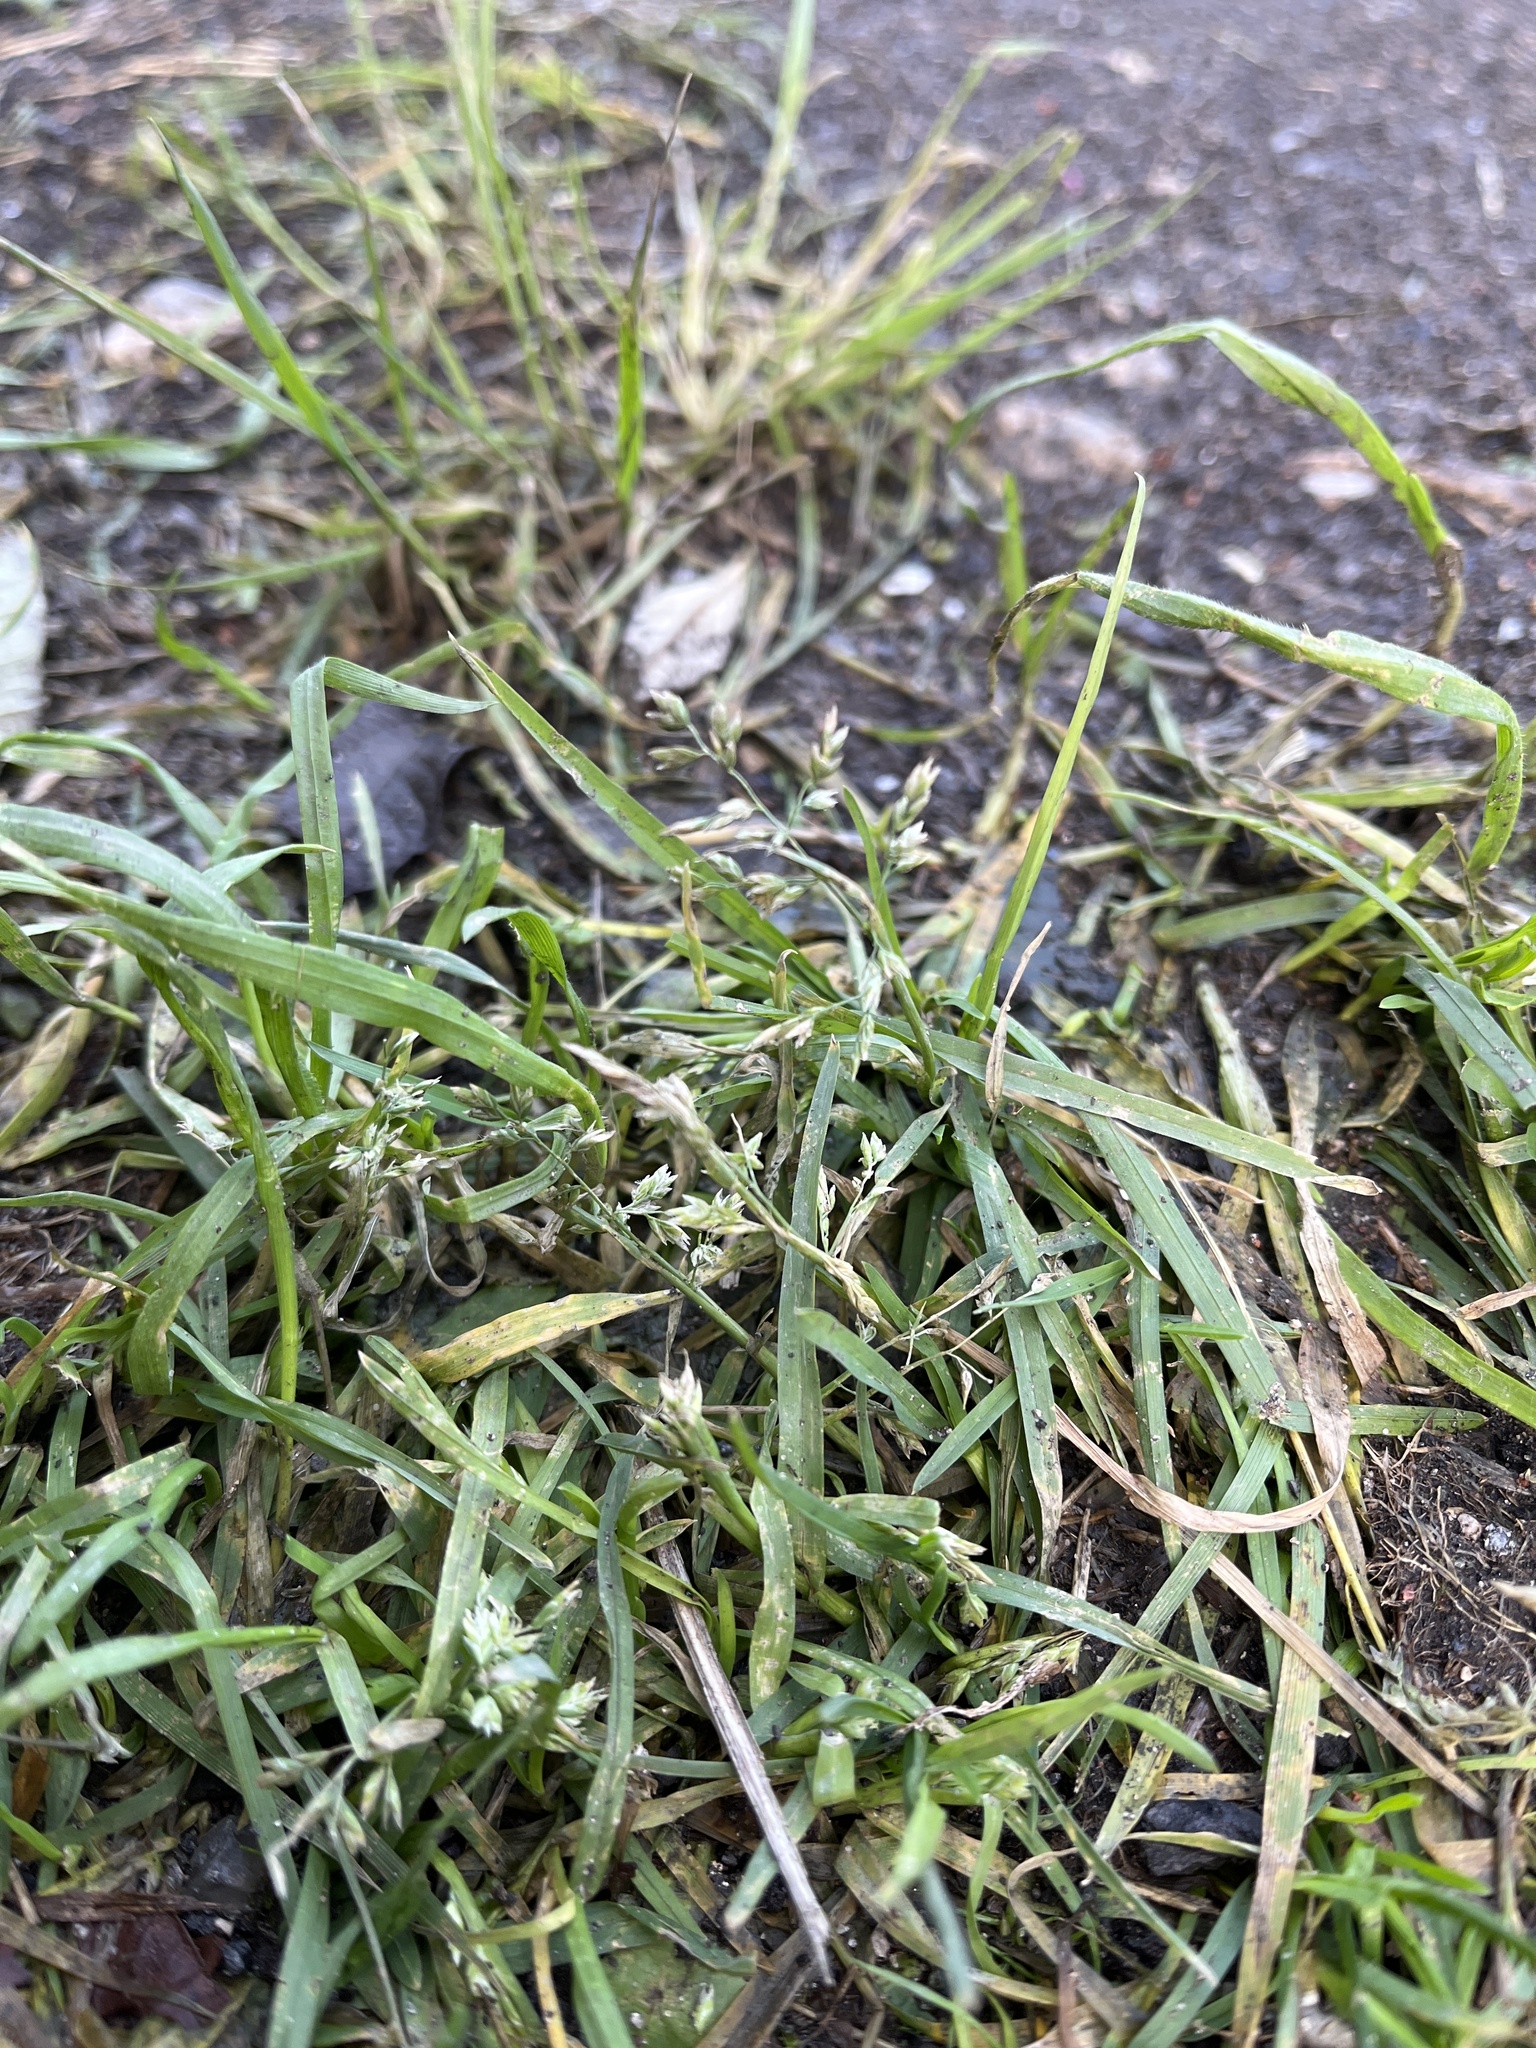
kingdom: Plantae
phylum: Tracheophyta
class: Liliopsida
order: Poales
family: Poaceae
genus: Poa
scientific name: Poa annua
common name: Annual bluegrass
